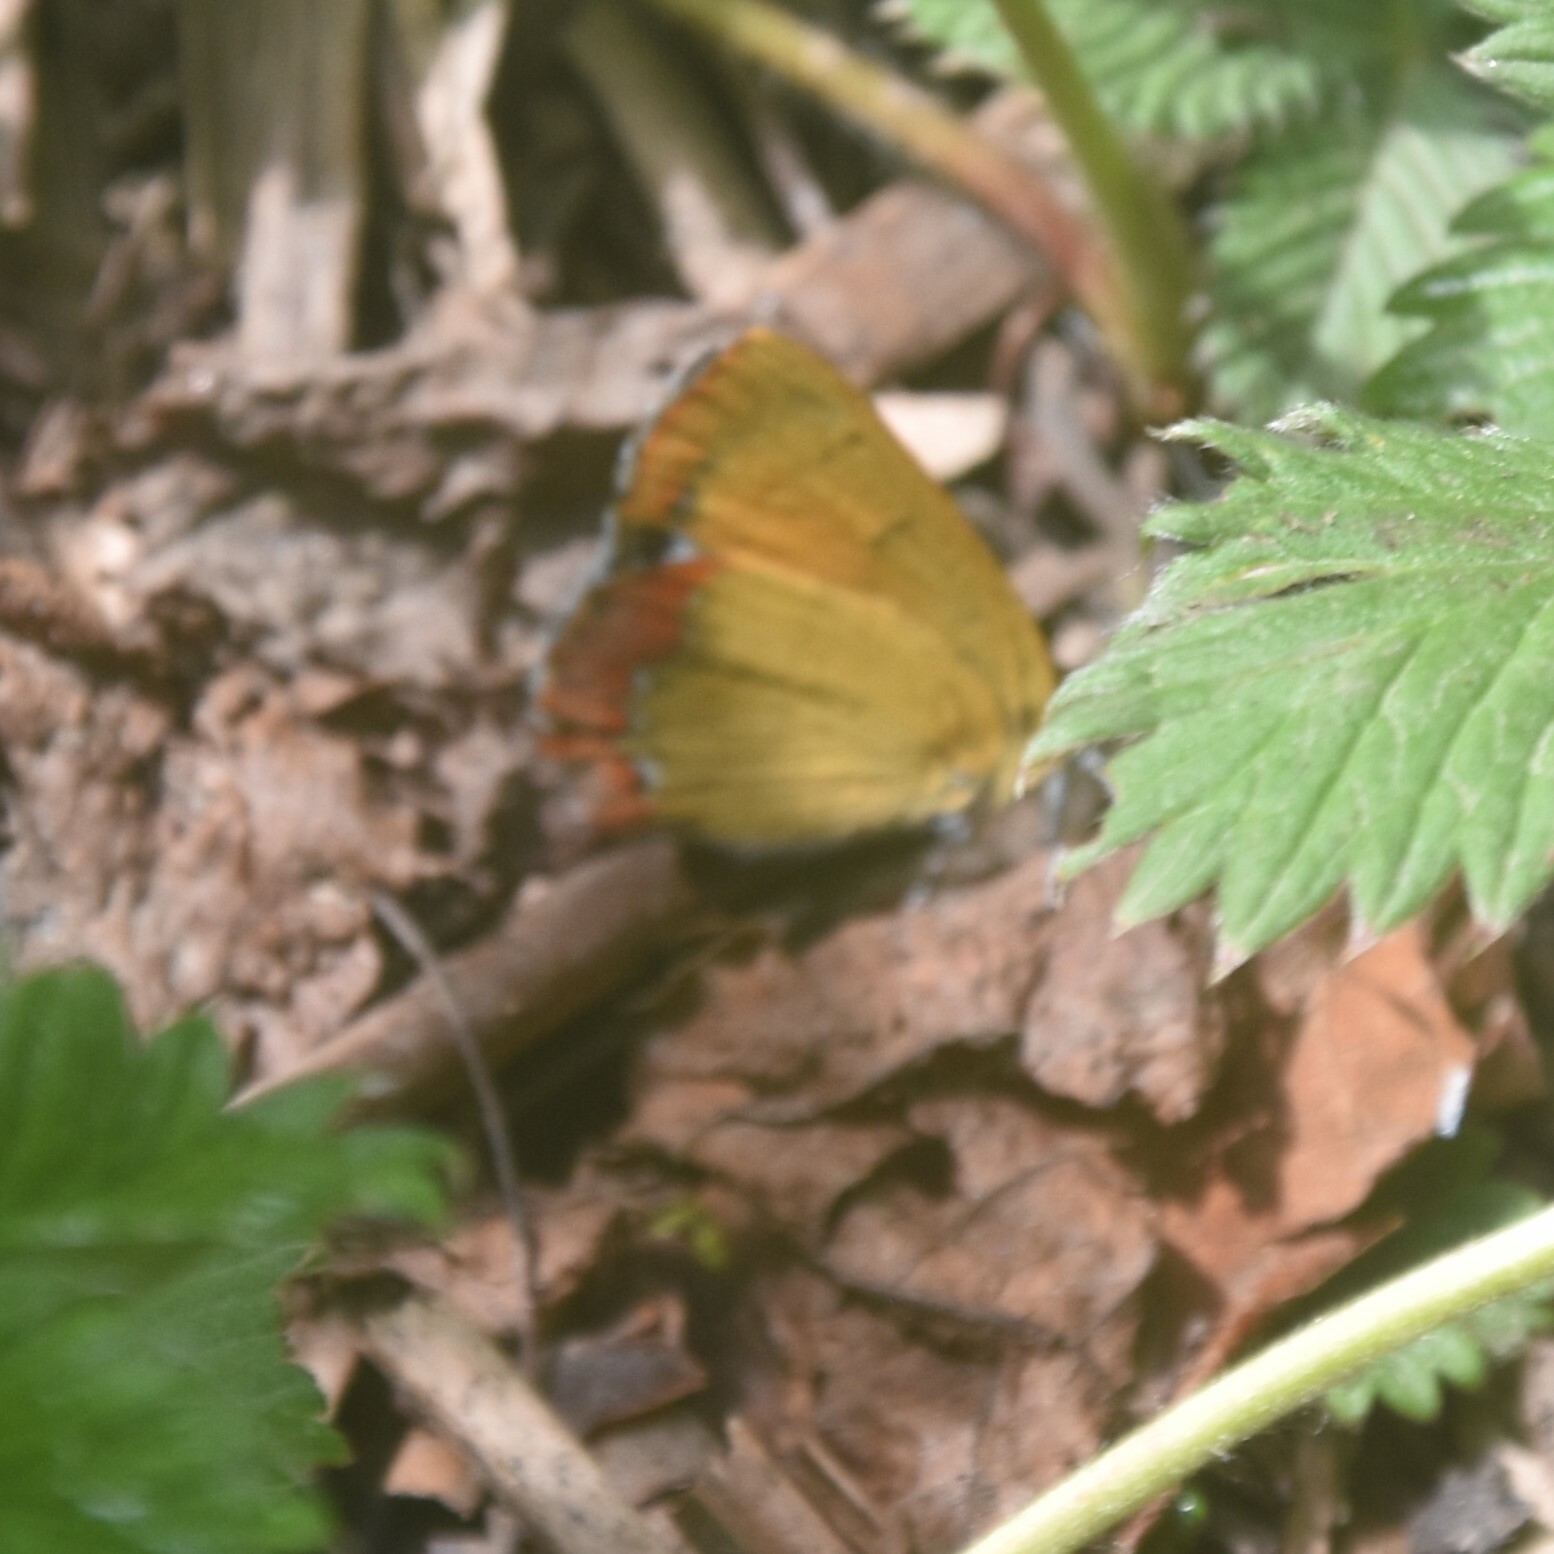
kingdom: Animalia
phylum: Arthropoda
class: Insecta
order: Lepidoptera
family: Lycaenidae
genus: Heliophorus
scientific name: Heliophorus oda
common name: Eastern blue sapphire
